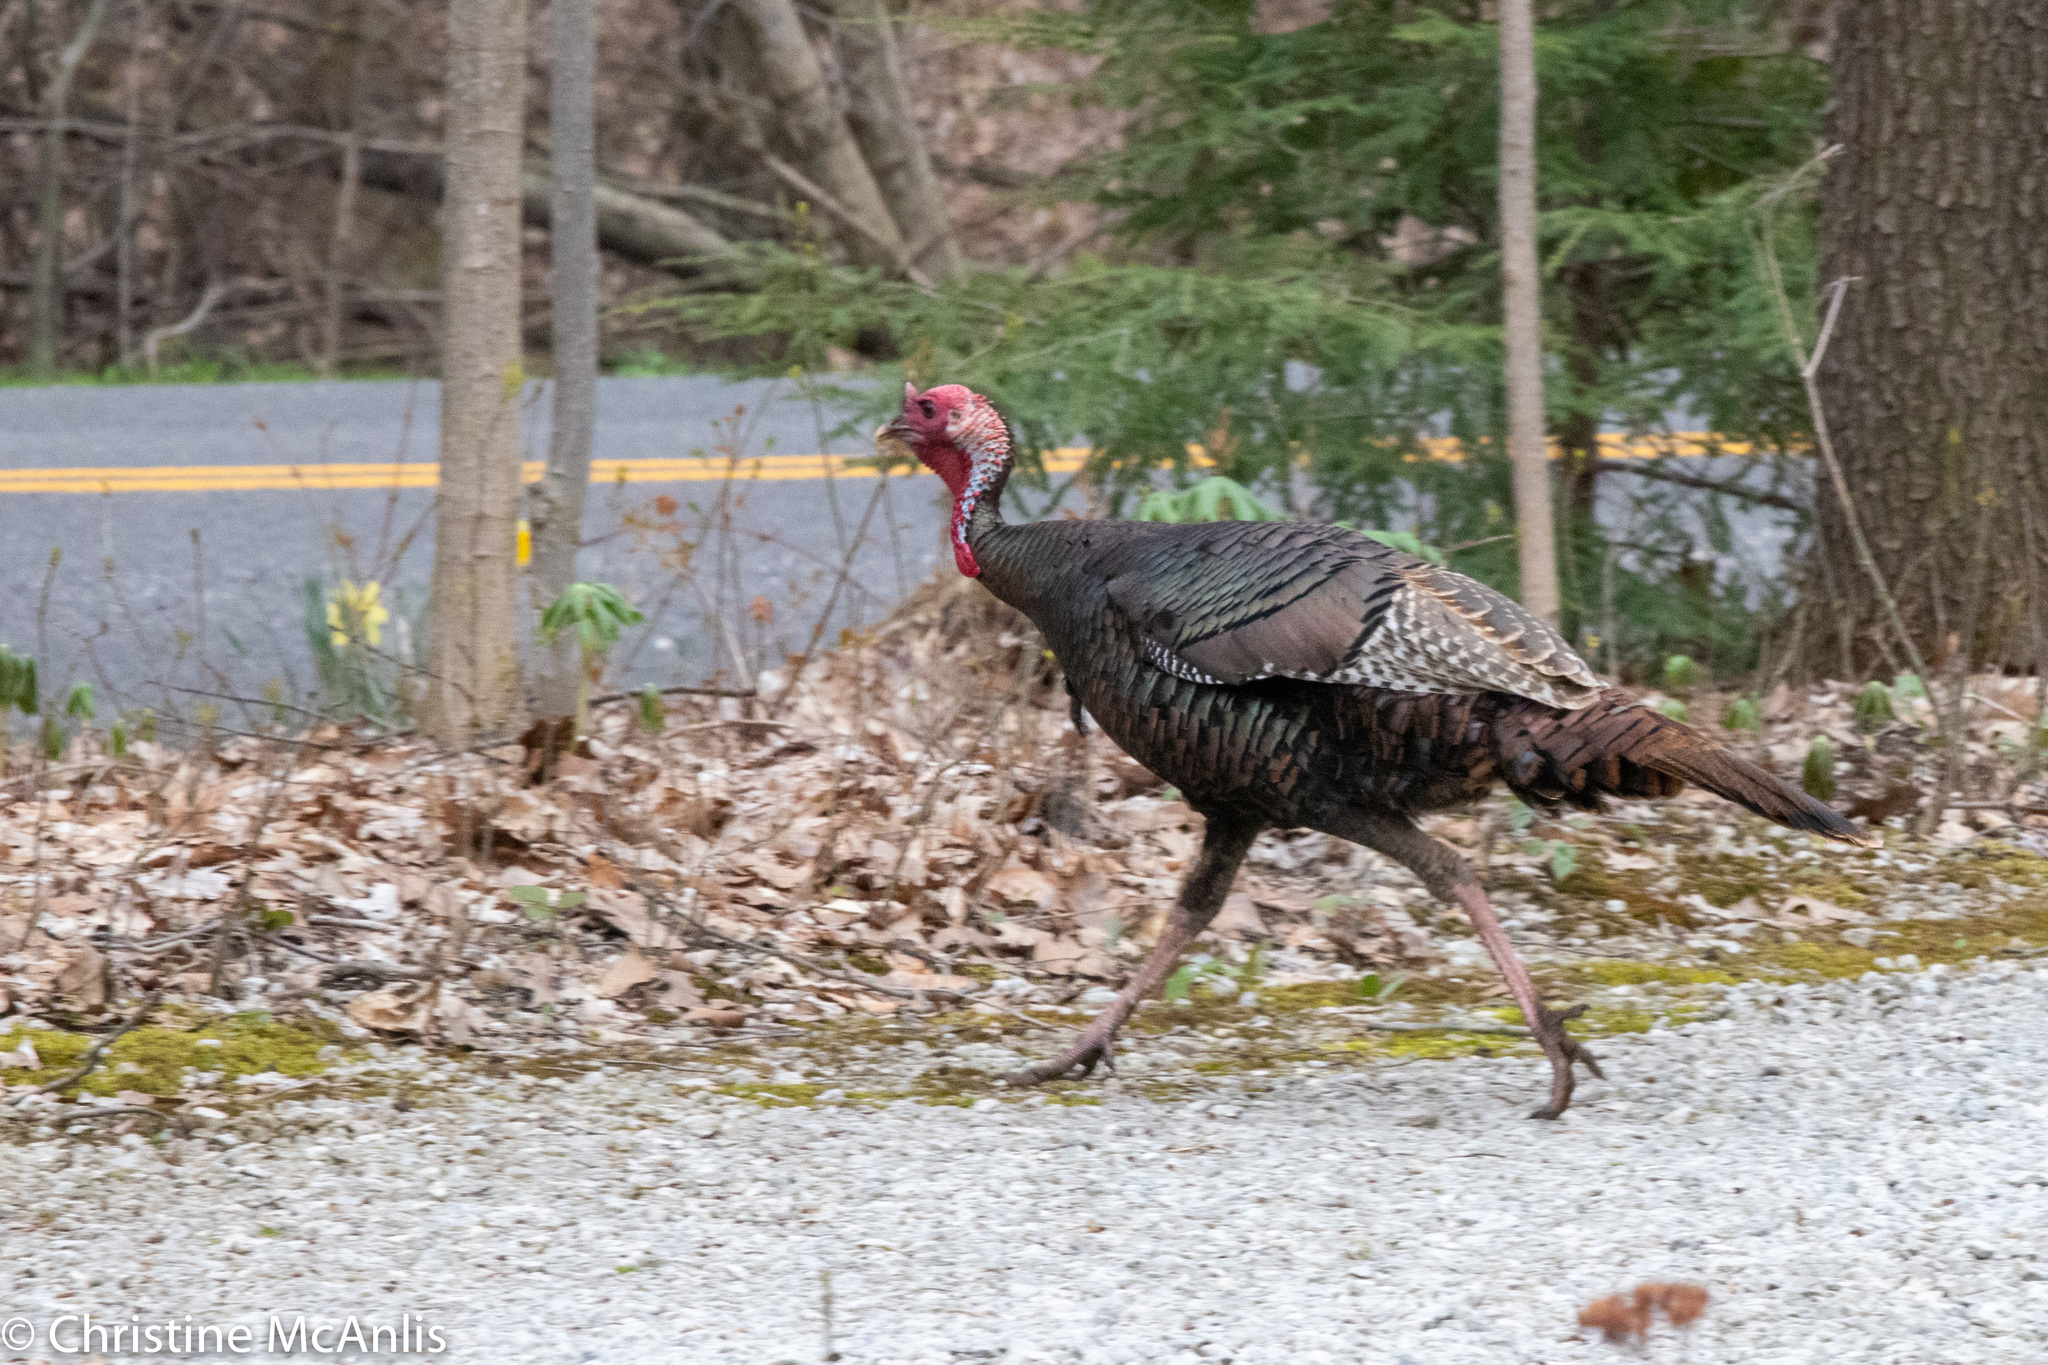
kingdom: Animalia
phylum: Chordata
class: Aves
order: Galliformes
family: Phasianidae
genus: Meleagris
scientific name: Meleagris gallopavo
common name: Wild turkey
